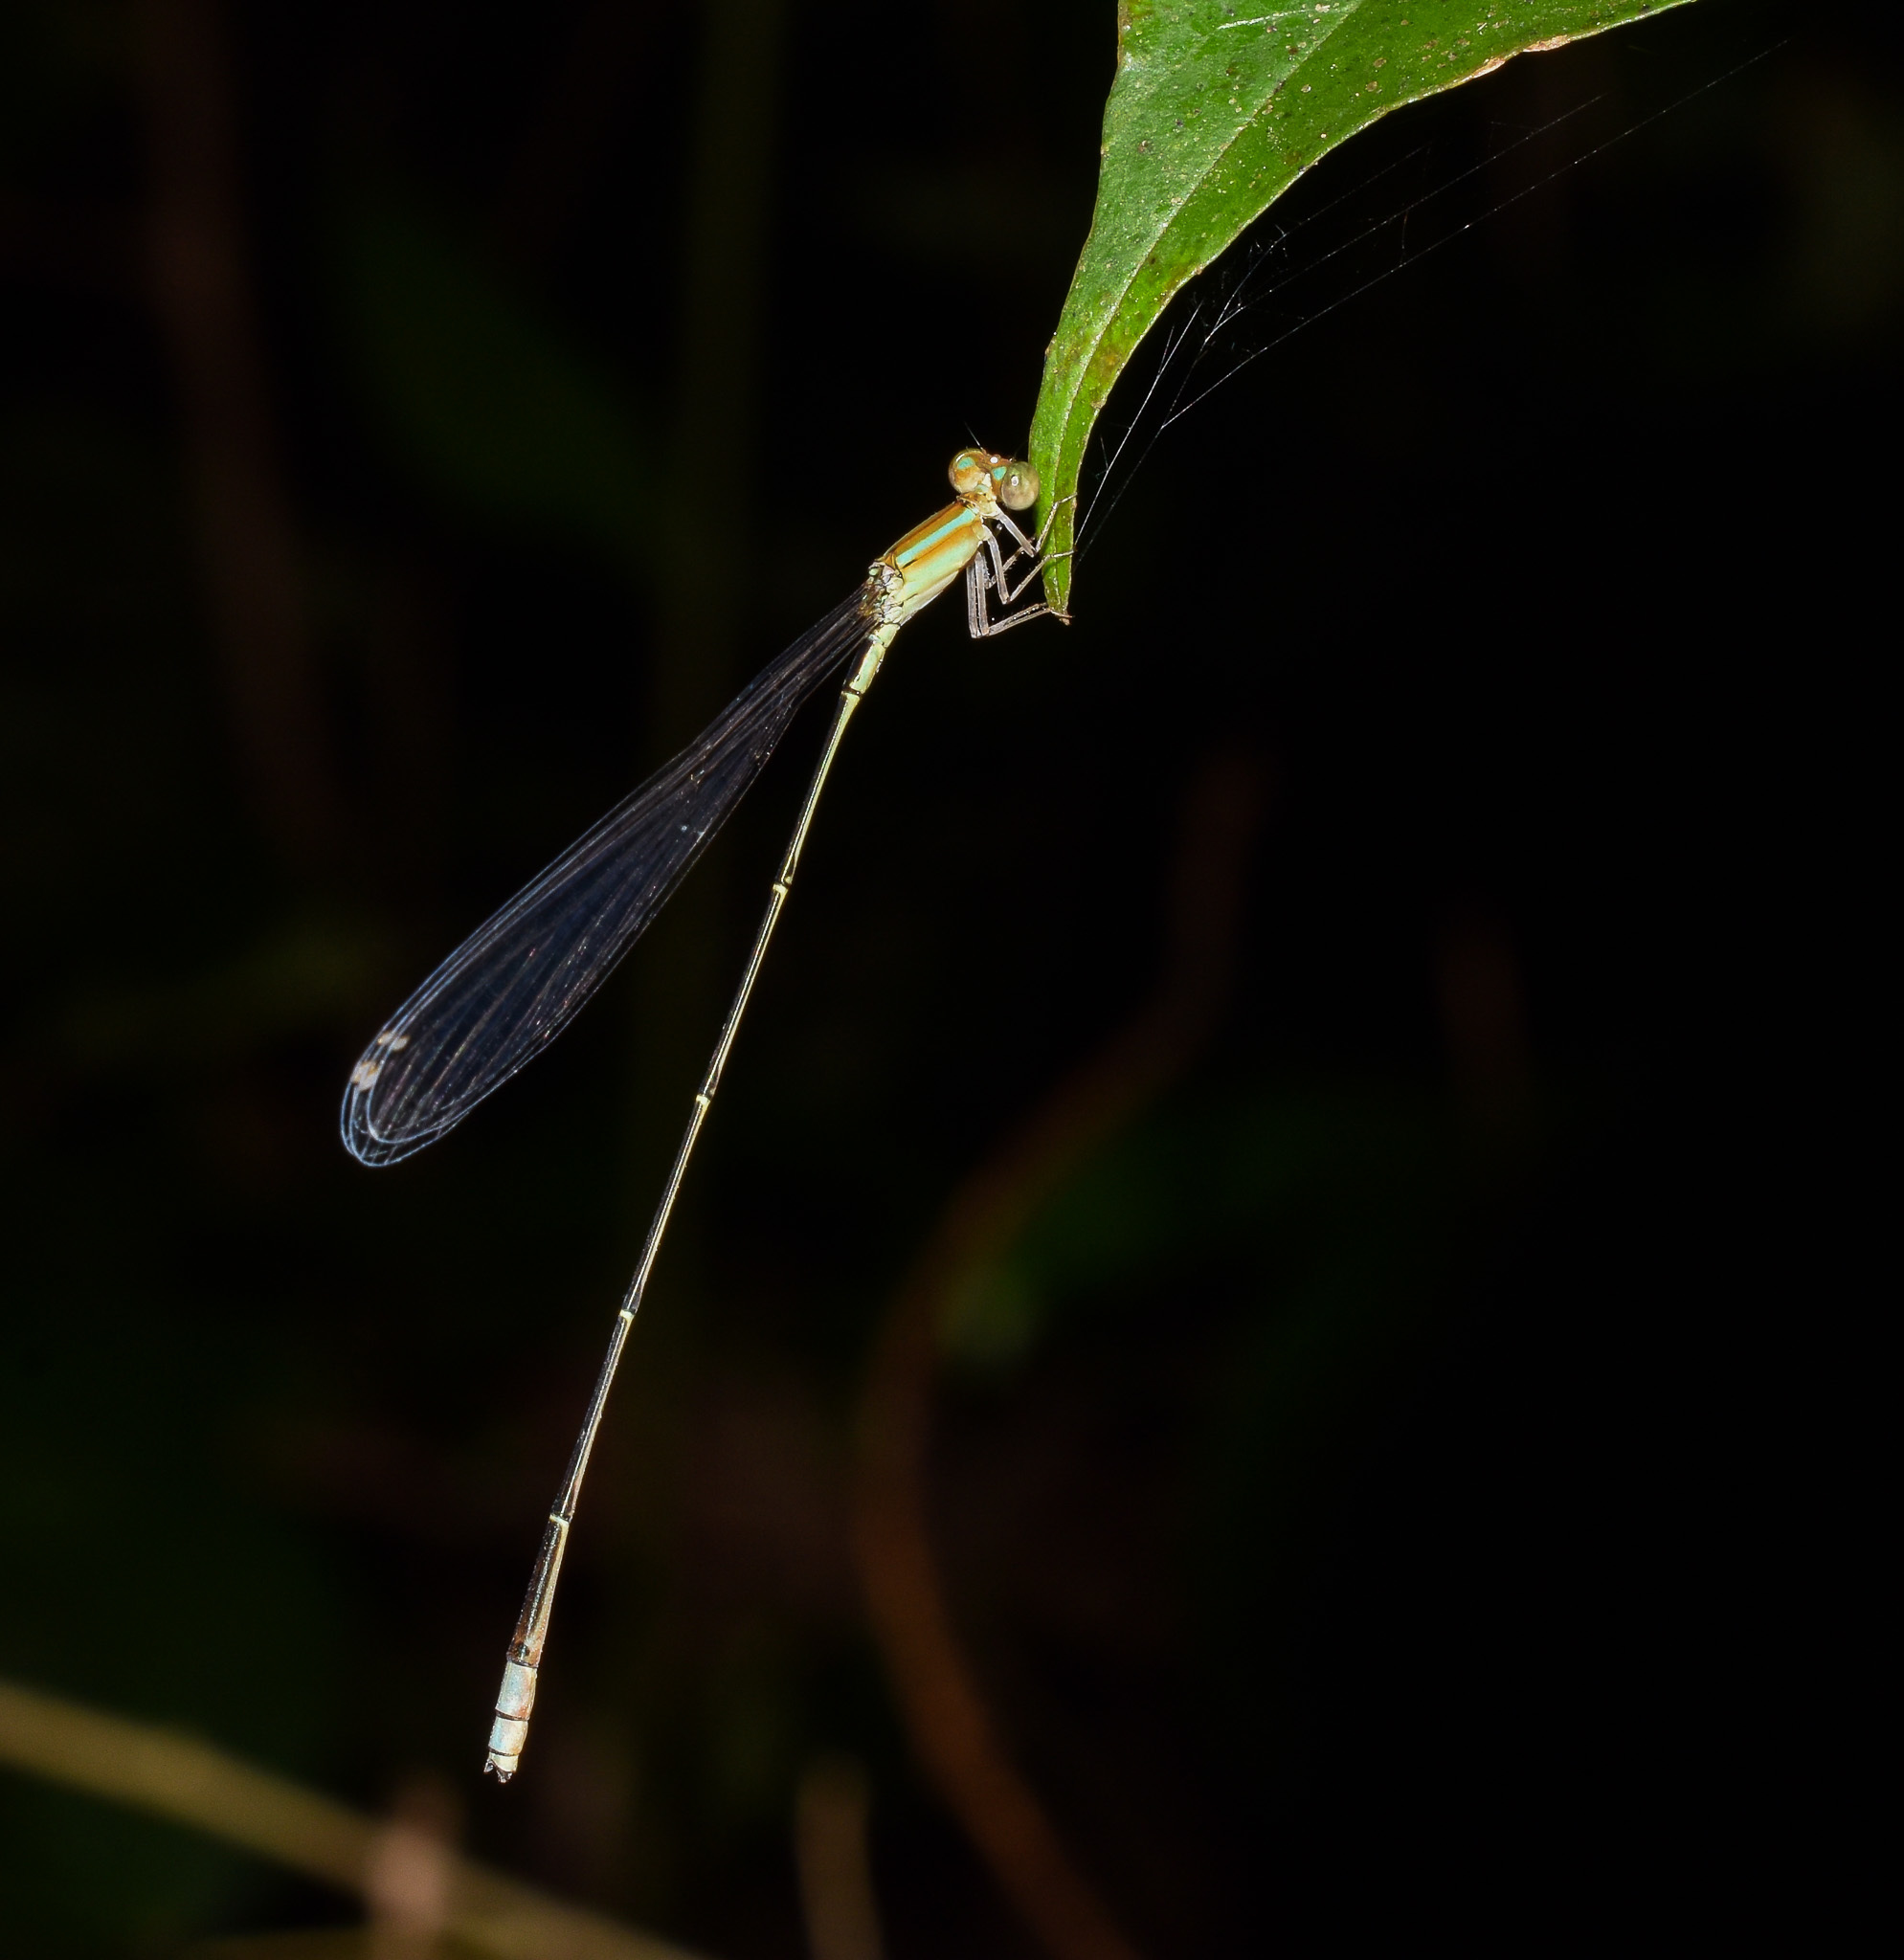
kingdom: Animalia
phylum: Arthropoda
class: Insecta
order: Odonata
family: Coenagrionidae
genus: Aciagrion
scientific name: Aciagrion pallidum
